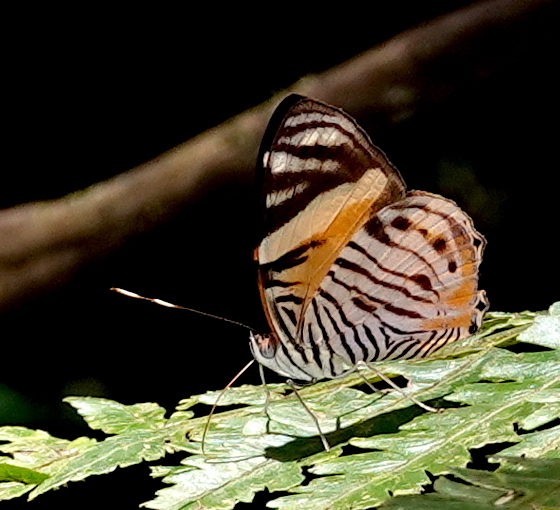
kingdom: Animalia
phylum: Arthropoda
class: Insecta
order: Lepidoptera
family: Nymphalidae
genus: Callizona
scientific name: Callizona acesta
